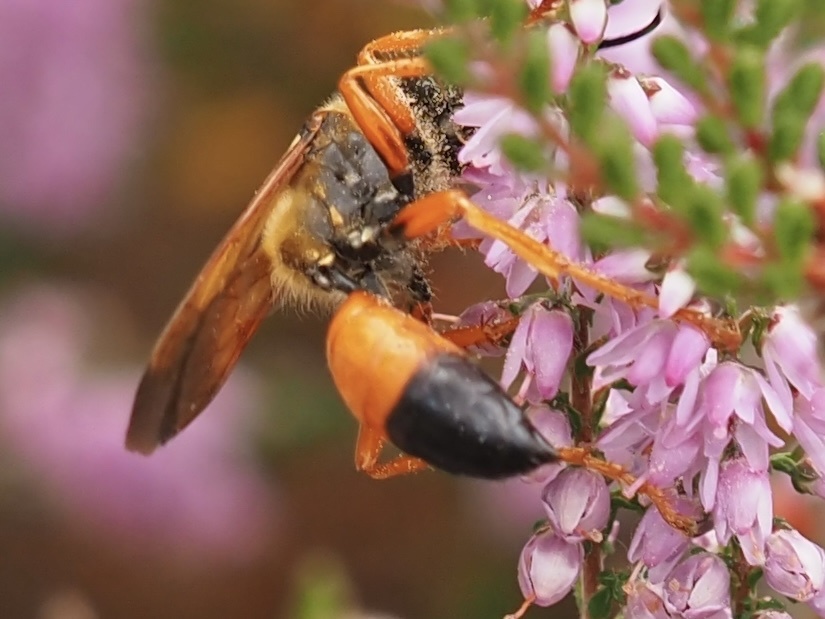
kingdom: Animalia
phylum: Arthropoda
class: Insecta
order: Hymenoptera
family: Sphecidae
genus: Sphex
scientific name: Sphex ichneumoneus
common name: Great golden digger wasp
